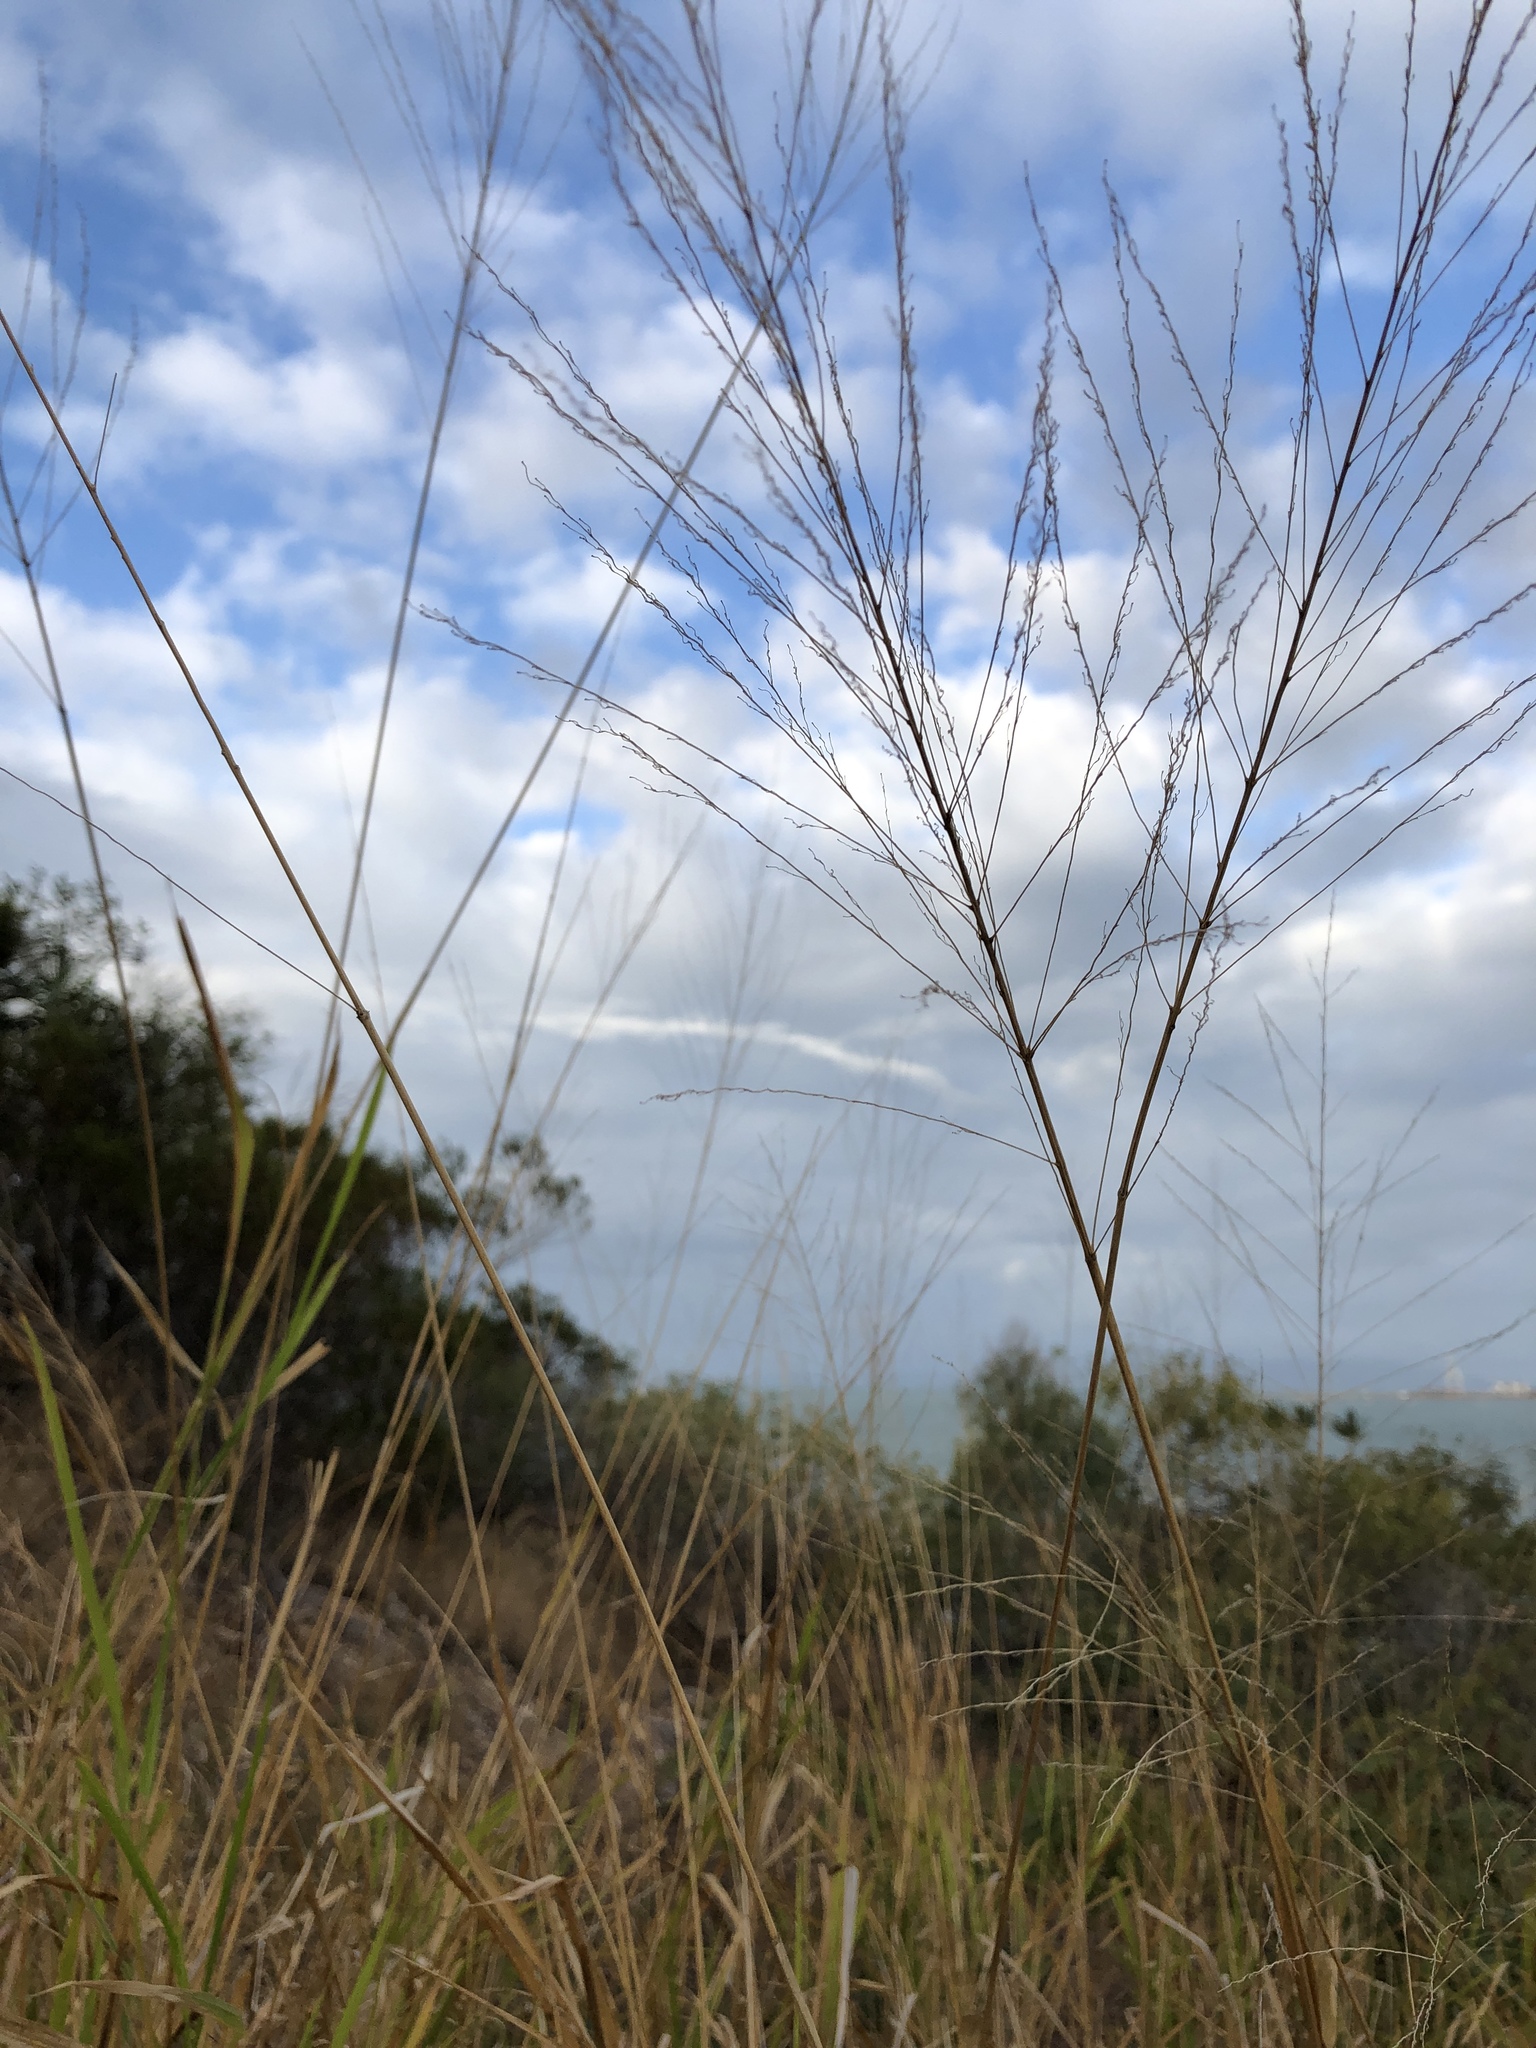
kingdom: Plantae
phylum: Tracheophyta
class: Liliopsida
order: Poales
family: Poaceae
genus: Megathyrsus
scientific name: Megathyrsus maximus
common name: Guineagrass
